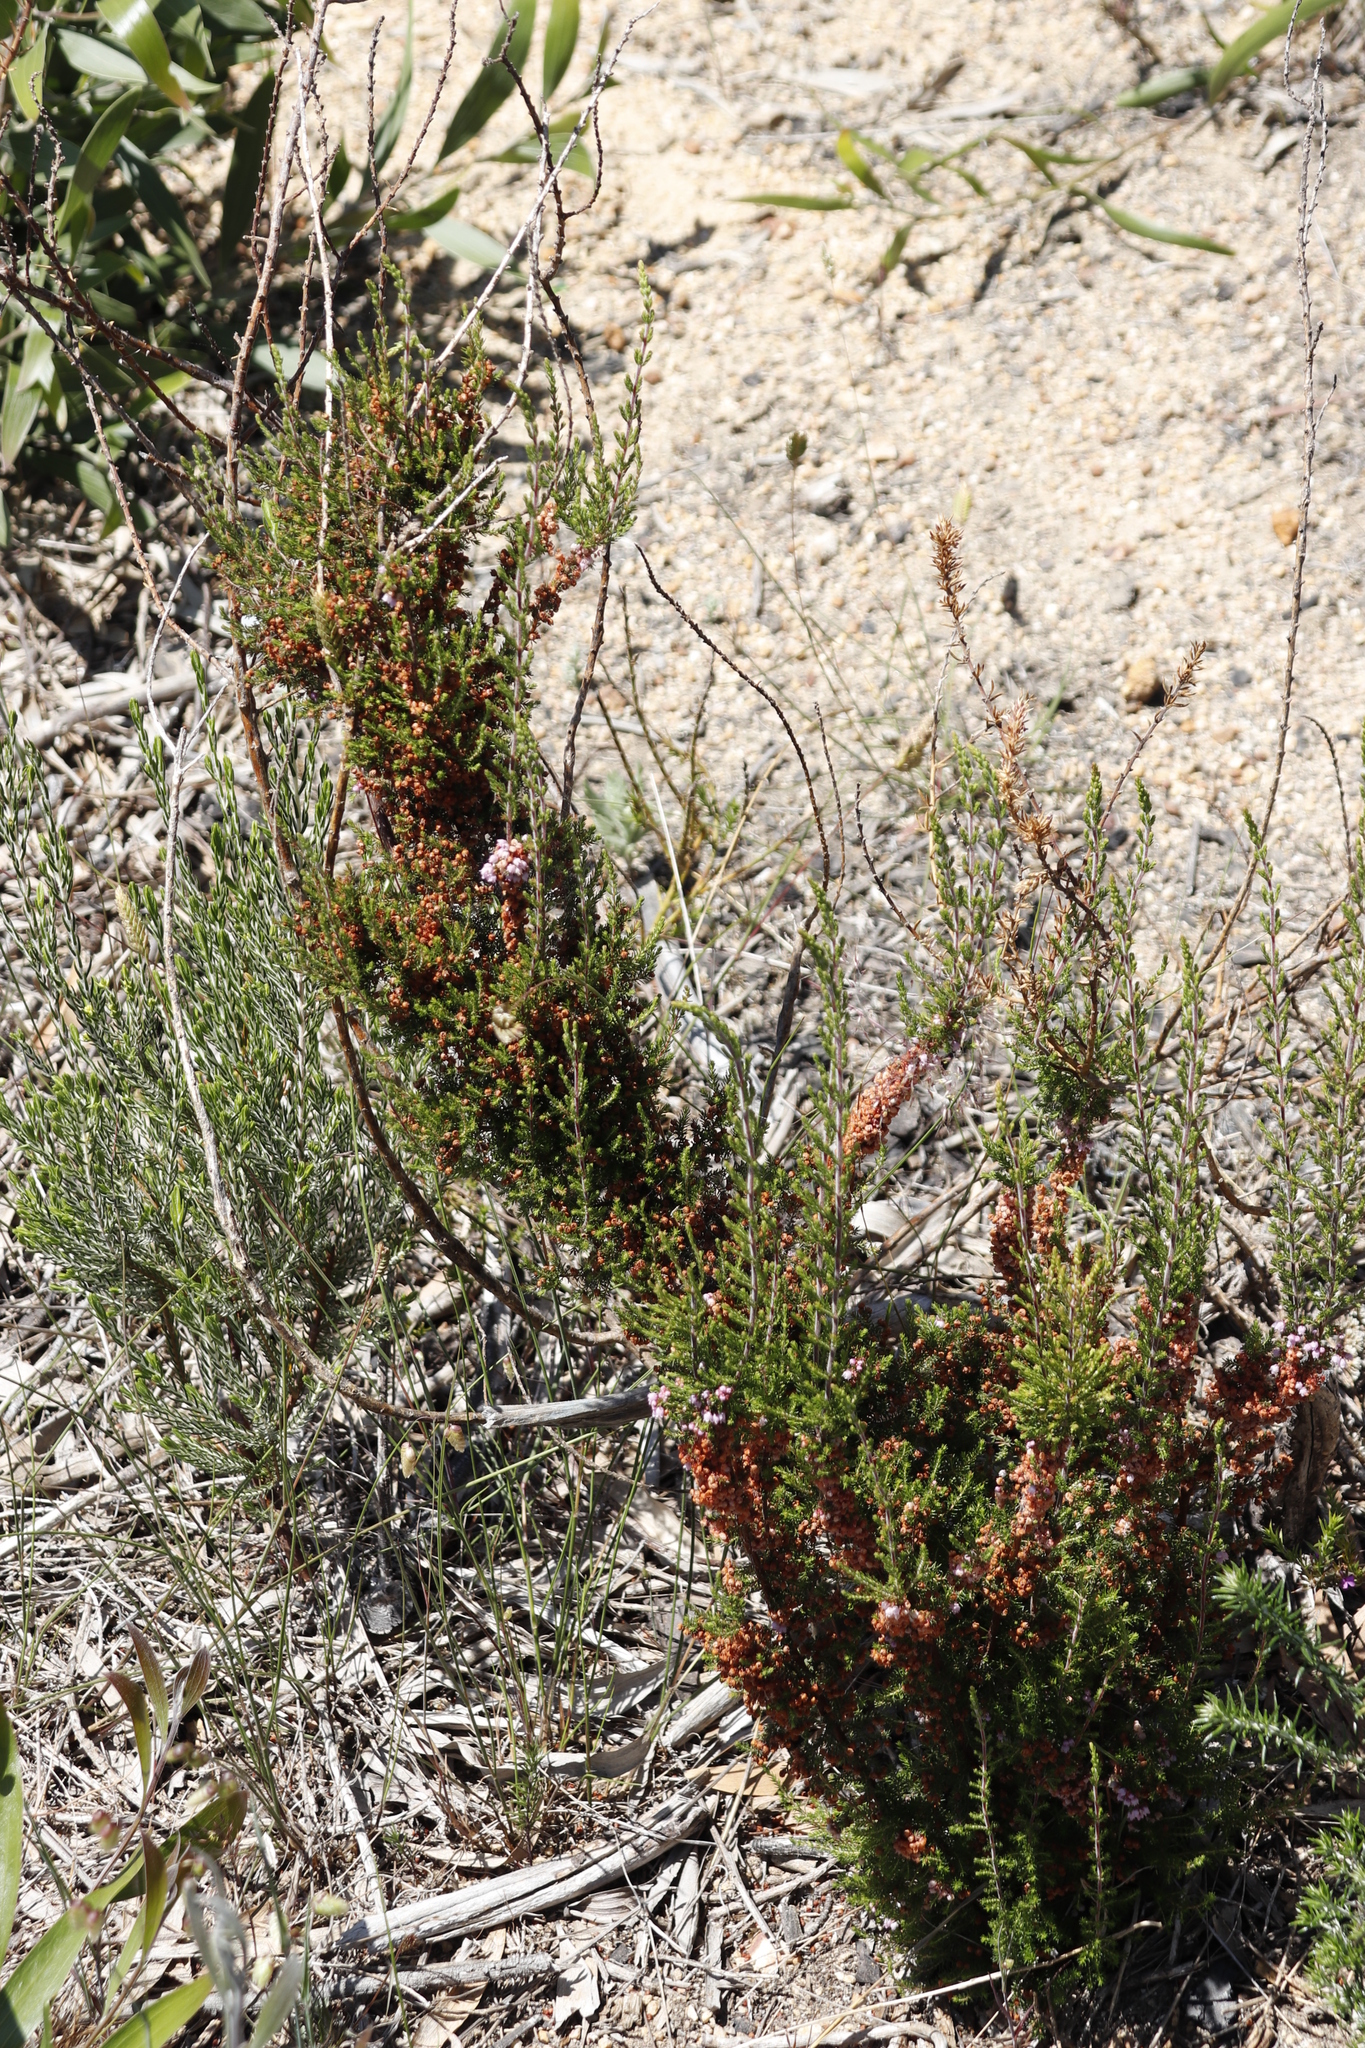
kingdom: Plantae
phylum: Tracheophyta
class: Magnoliopsida
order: Ericales
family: Ericaceae
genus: Erica
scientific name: Erica mauritanica
